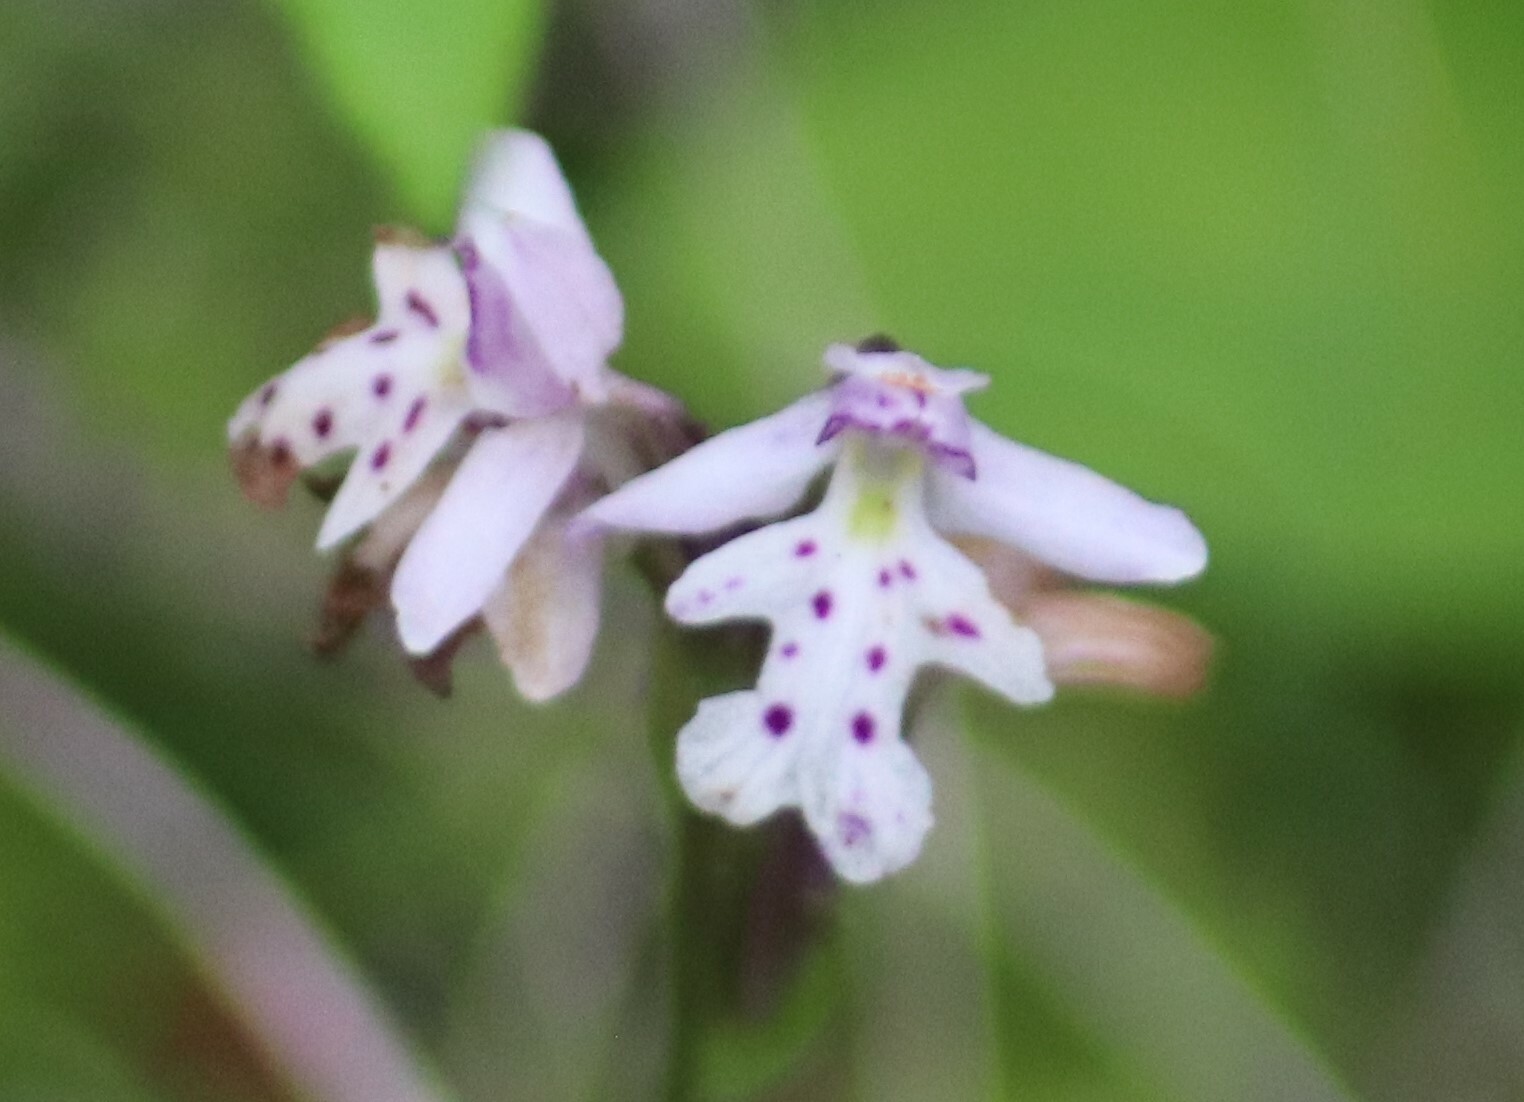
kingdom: Plantae
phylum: Tracheophyta
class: Liliopsida
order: Asparagales
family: Orchidaceae
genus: Galearis
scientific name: Galearis rotundifolia
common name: One-leaved orchis
